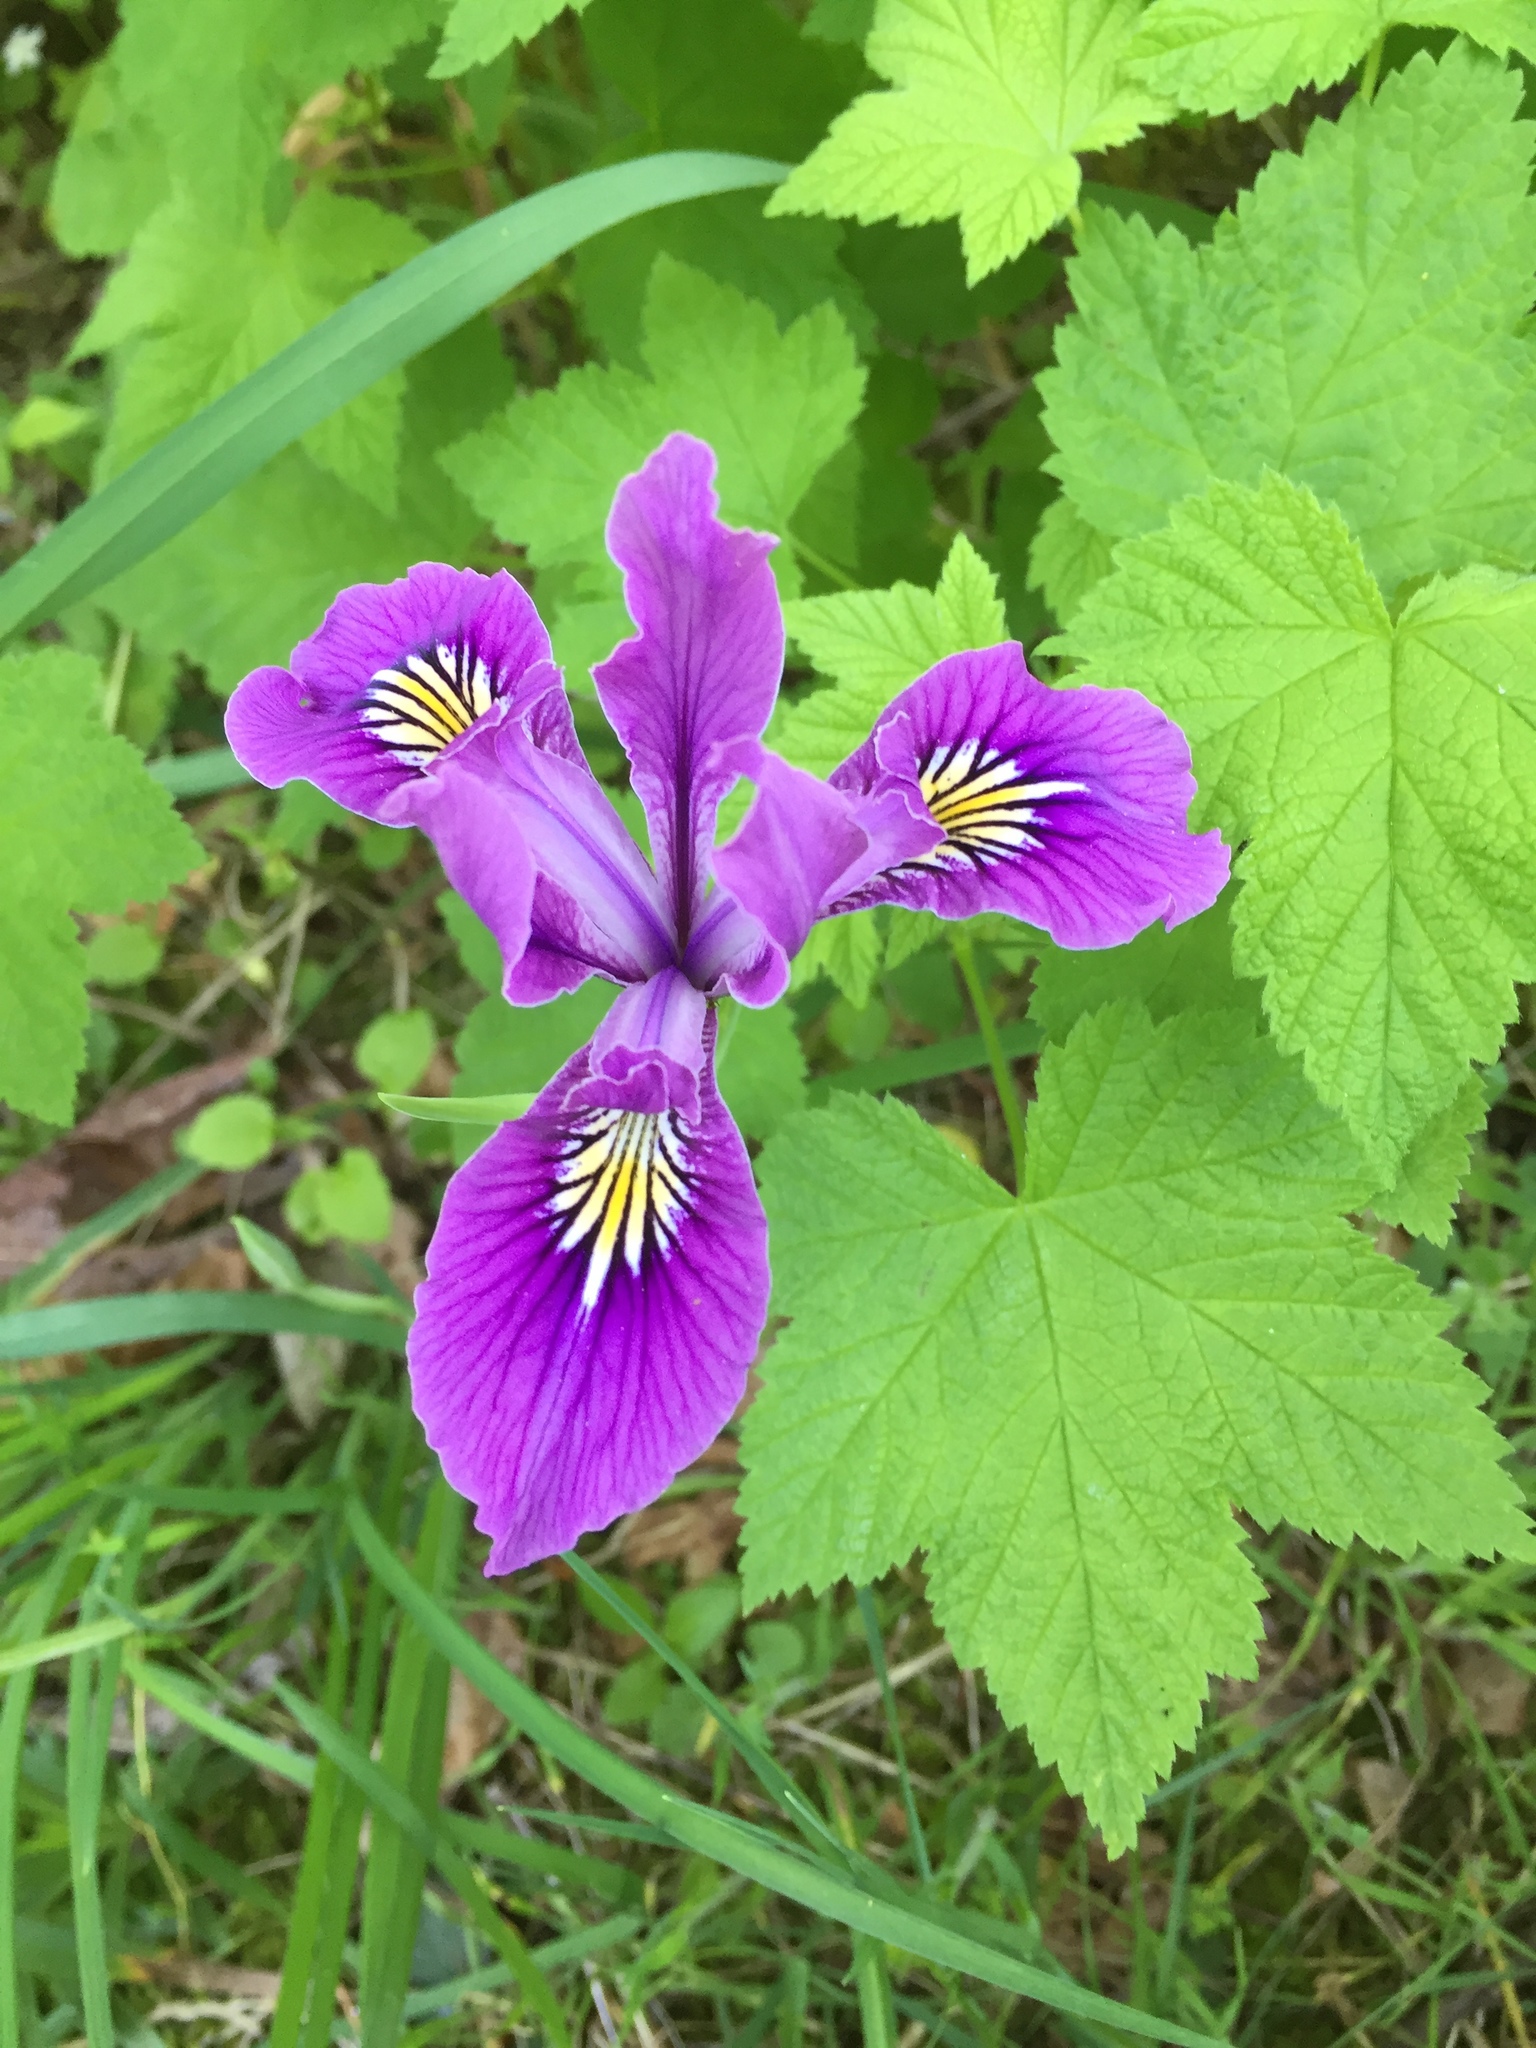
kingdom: Plantae
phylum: Tracheophyta
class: Liliopsida
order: Asparagales
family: Iridaceae
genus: Iris
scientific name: Iris tenax
